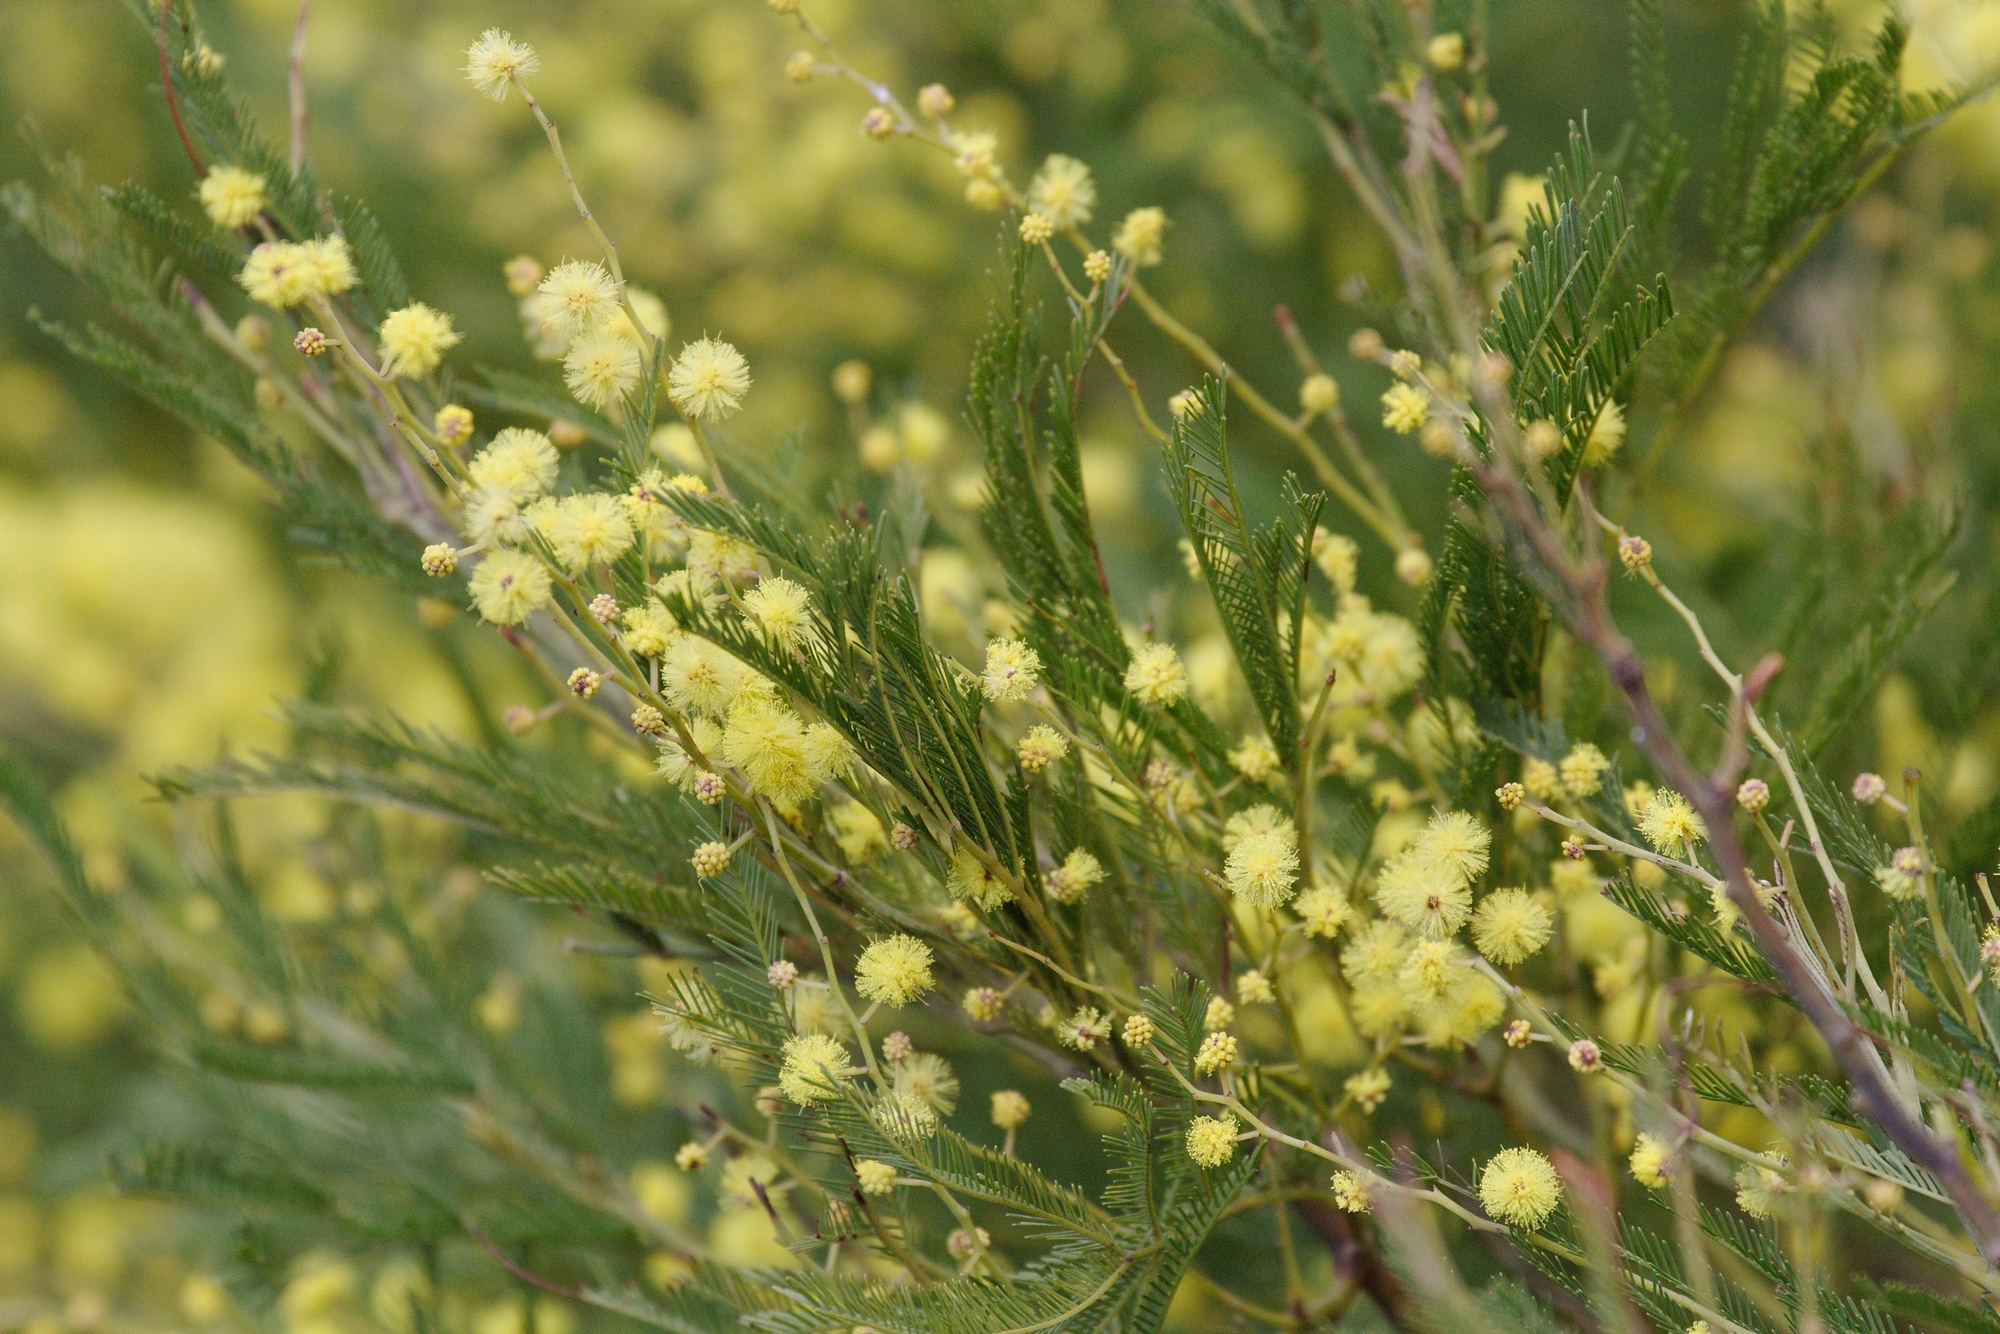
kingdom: Plantae
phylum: Tracheophyta
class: Magnoliopsida
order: Fabales
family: Fabaceae
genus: Acacia
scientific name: Acacia mearnsii
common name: Black wattle
